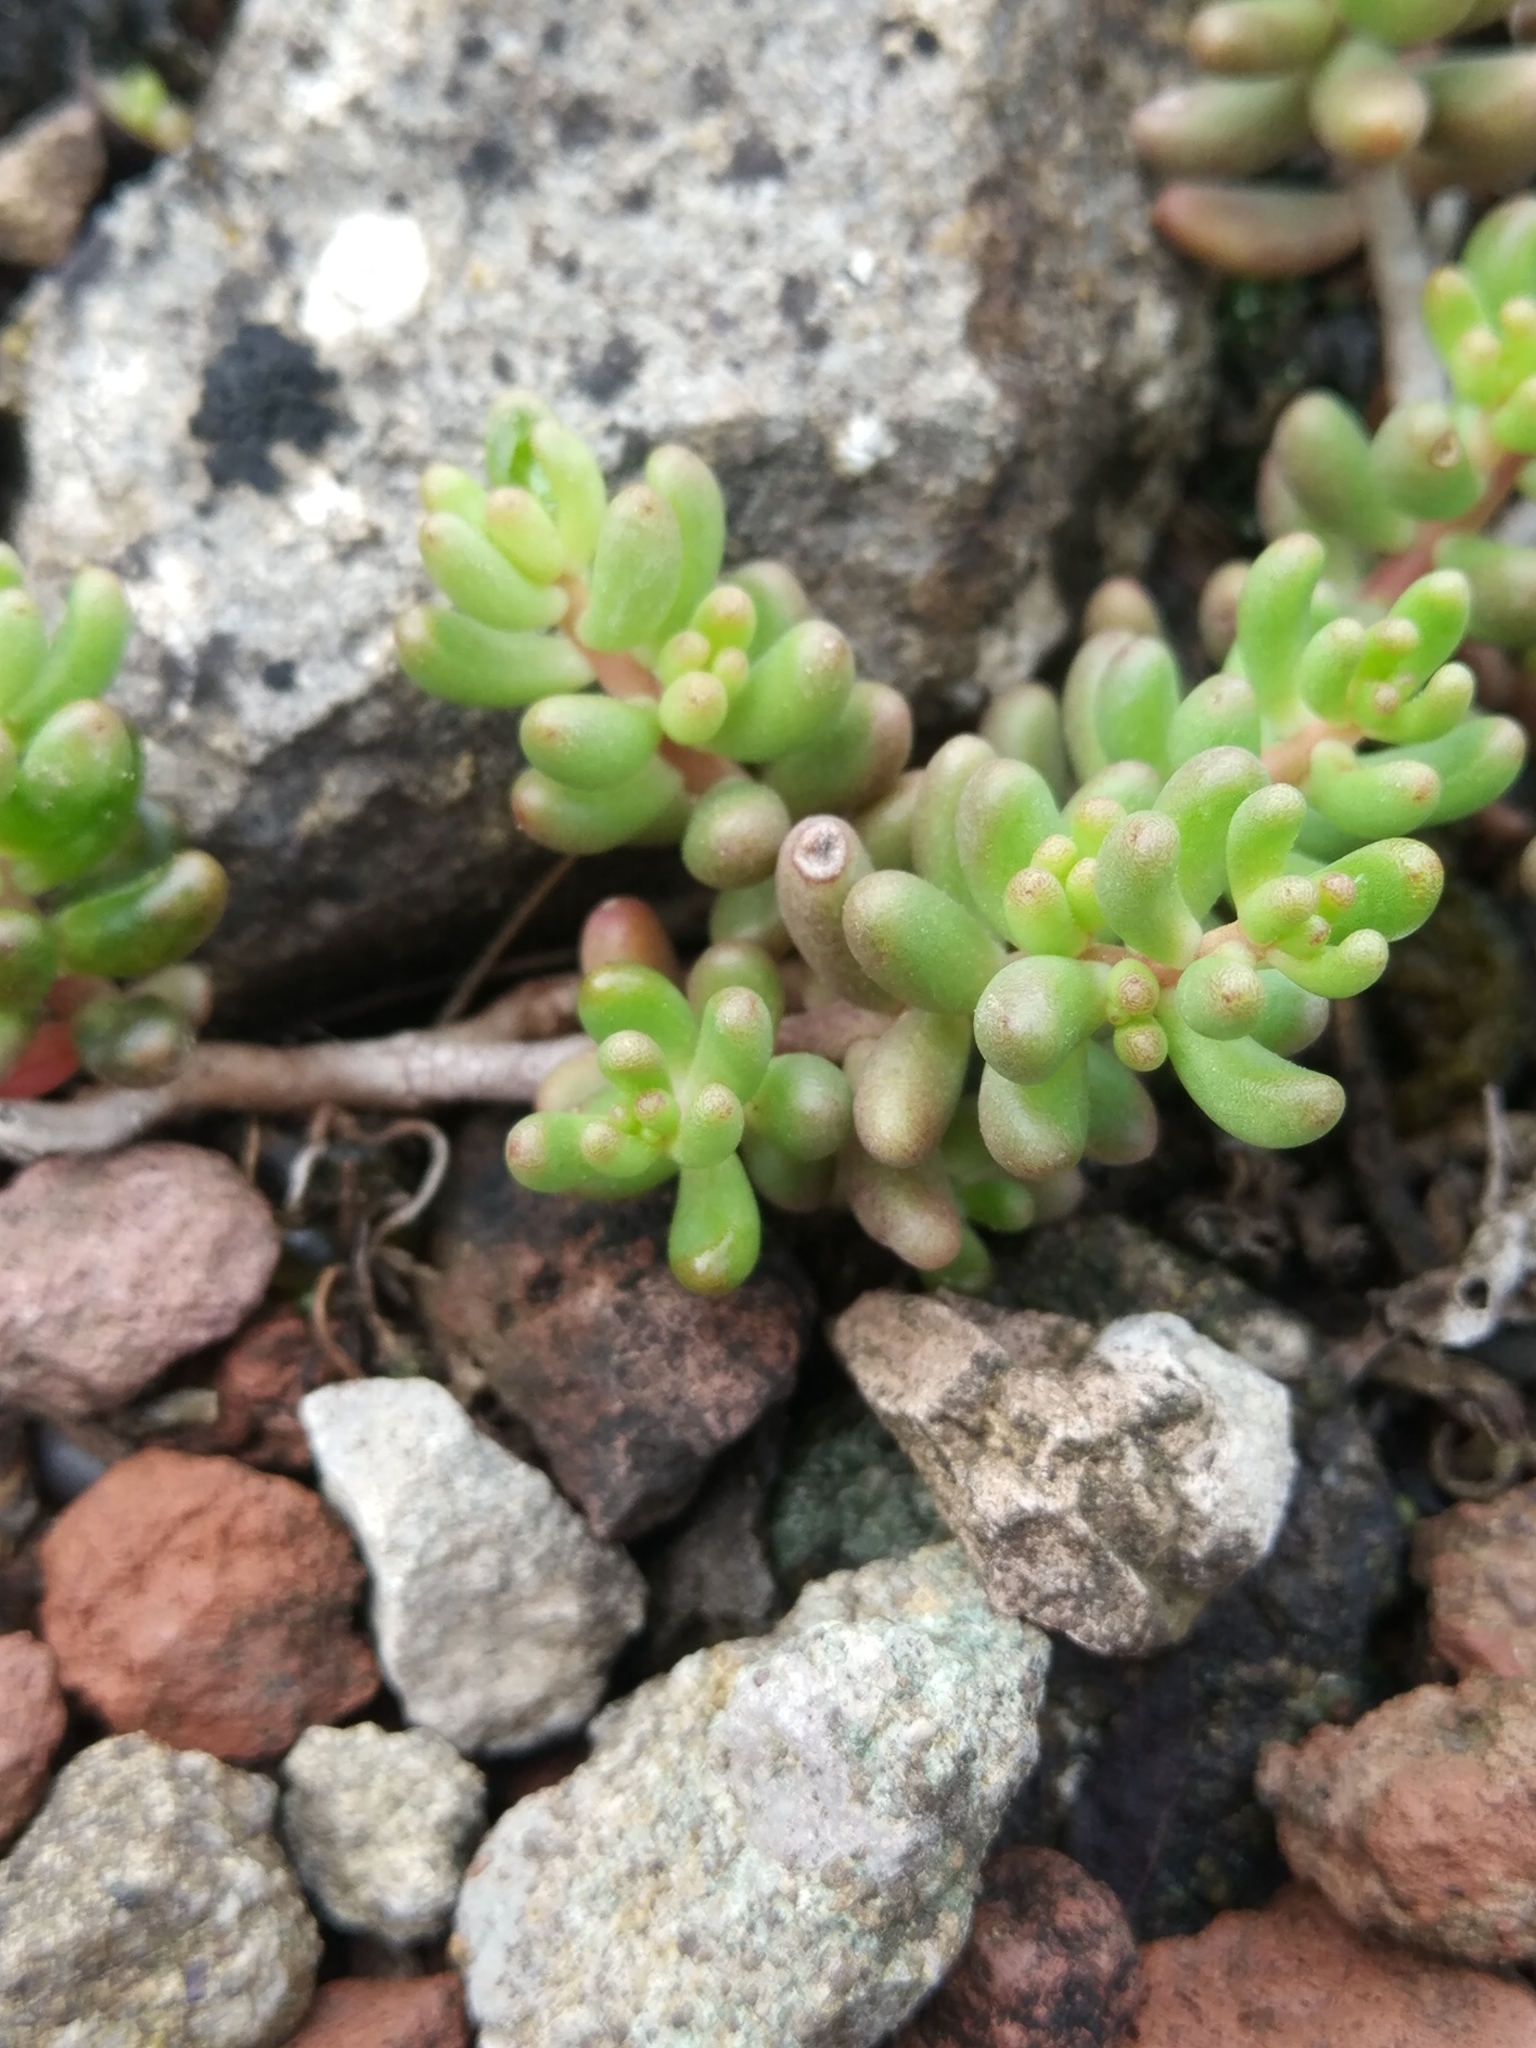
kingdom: Plantae
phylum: Tracheophyta
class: Magnoliopsida
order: Saxifragales
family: Crassulaceae
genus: Sedum
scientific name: Sedum album
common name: White stonecrop
